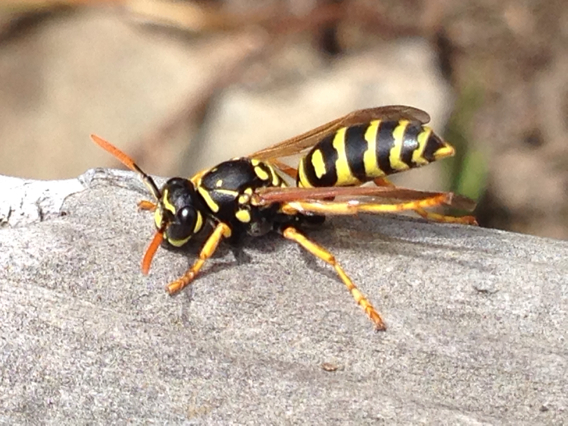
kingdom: Animalia
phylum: Arthropoda
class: Insecta
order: Hymenoptera
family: Eumenidae
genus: Polistes
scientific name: Polistes dominula
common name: Paper wasp
